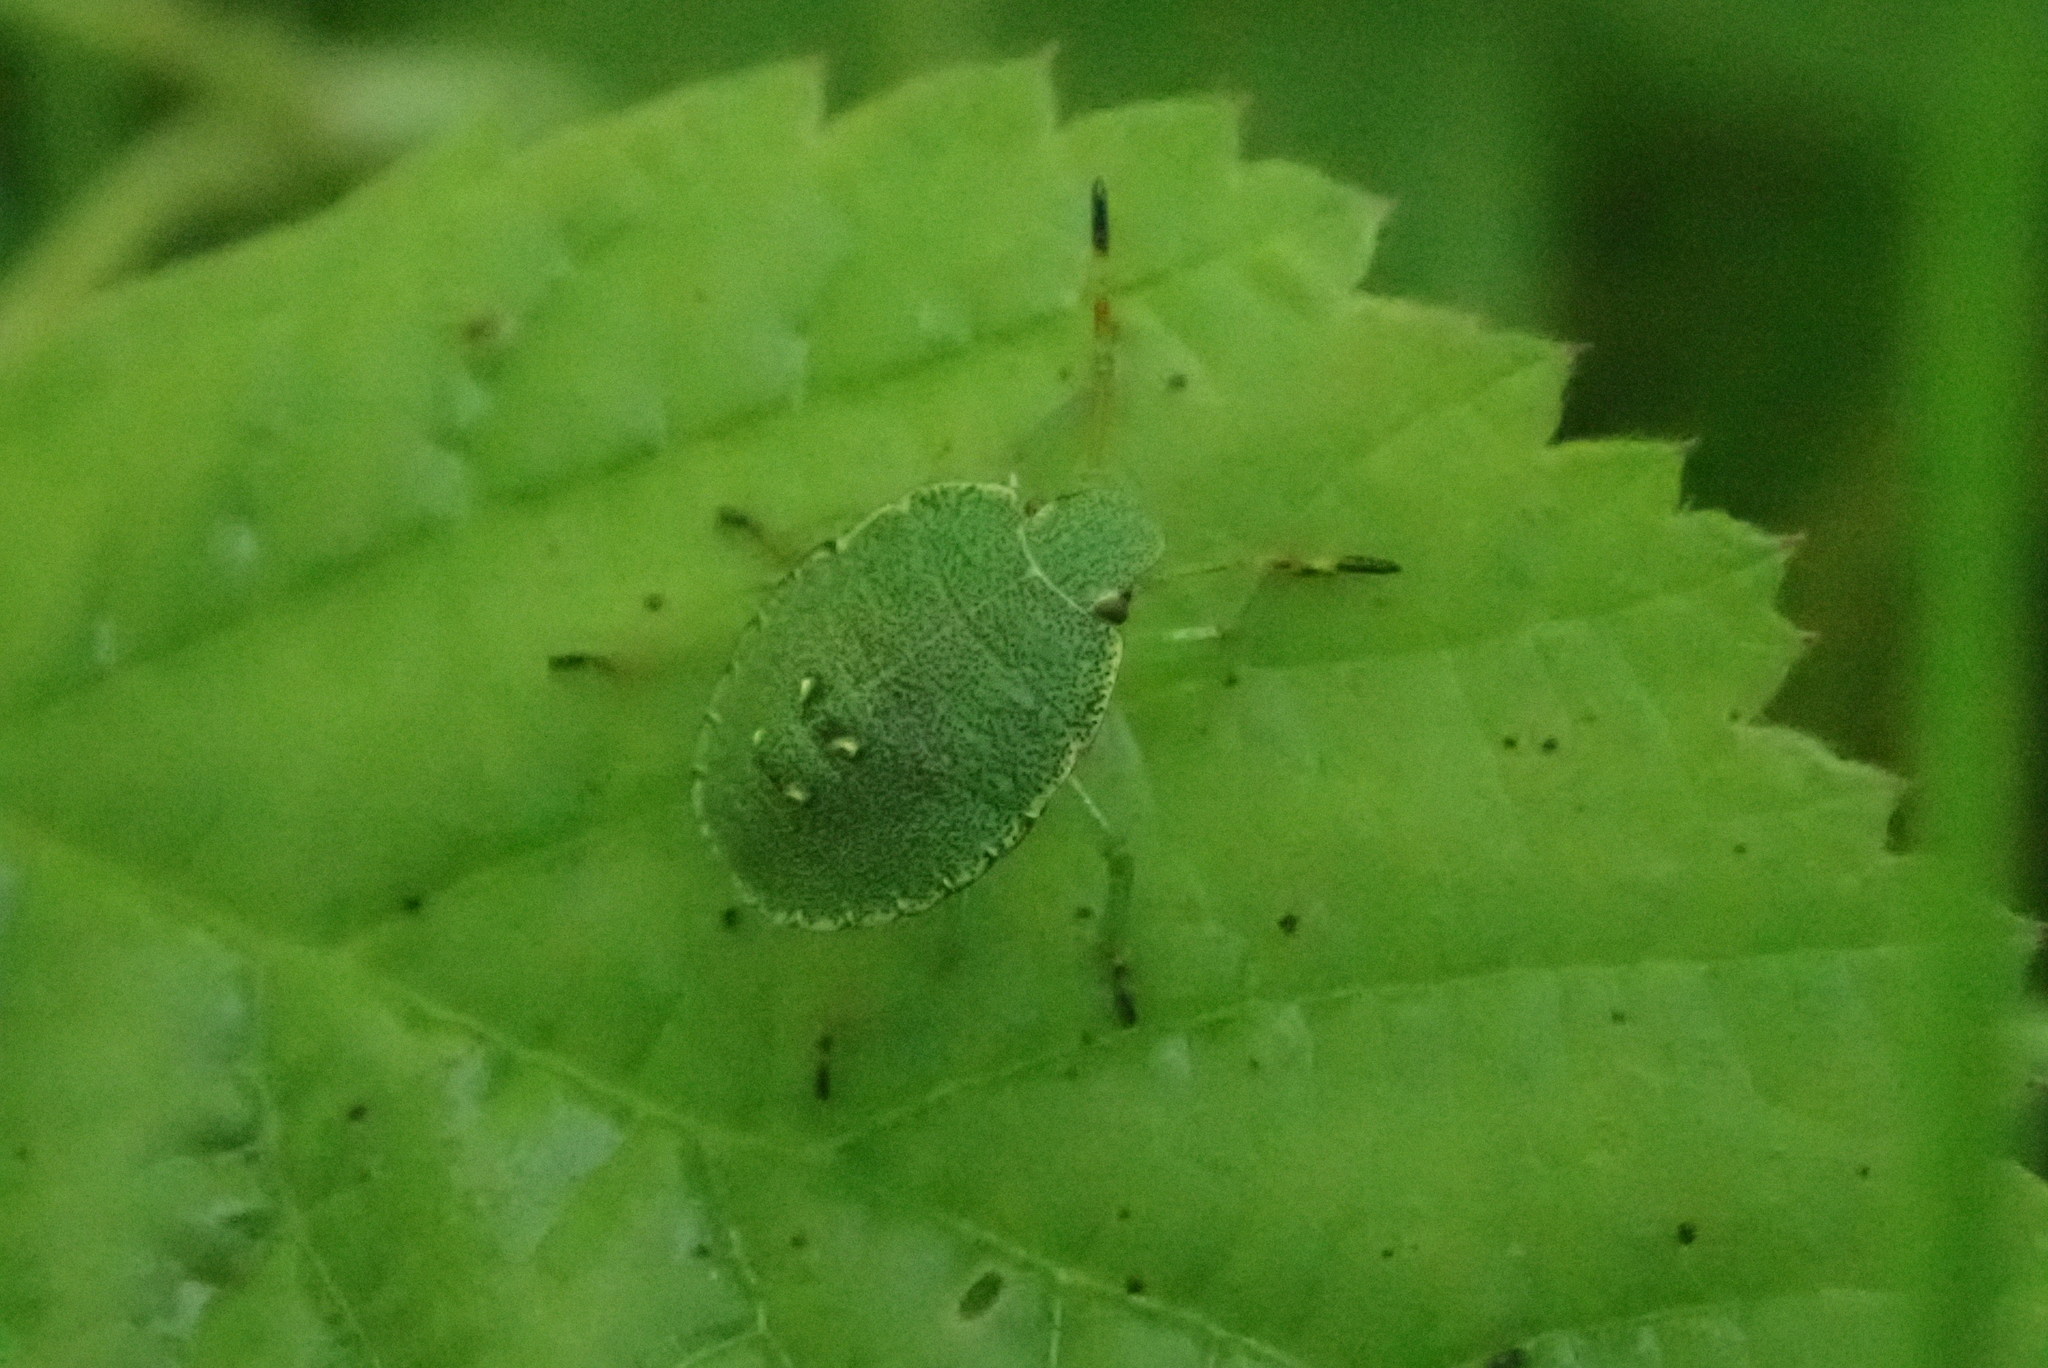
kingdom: Animalia
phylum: Arthropoda
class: Insecta
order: Hemiptera
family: Pentatomidae
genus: Palomena
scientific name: Palomena prasina
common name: Green shieldbug
